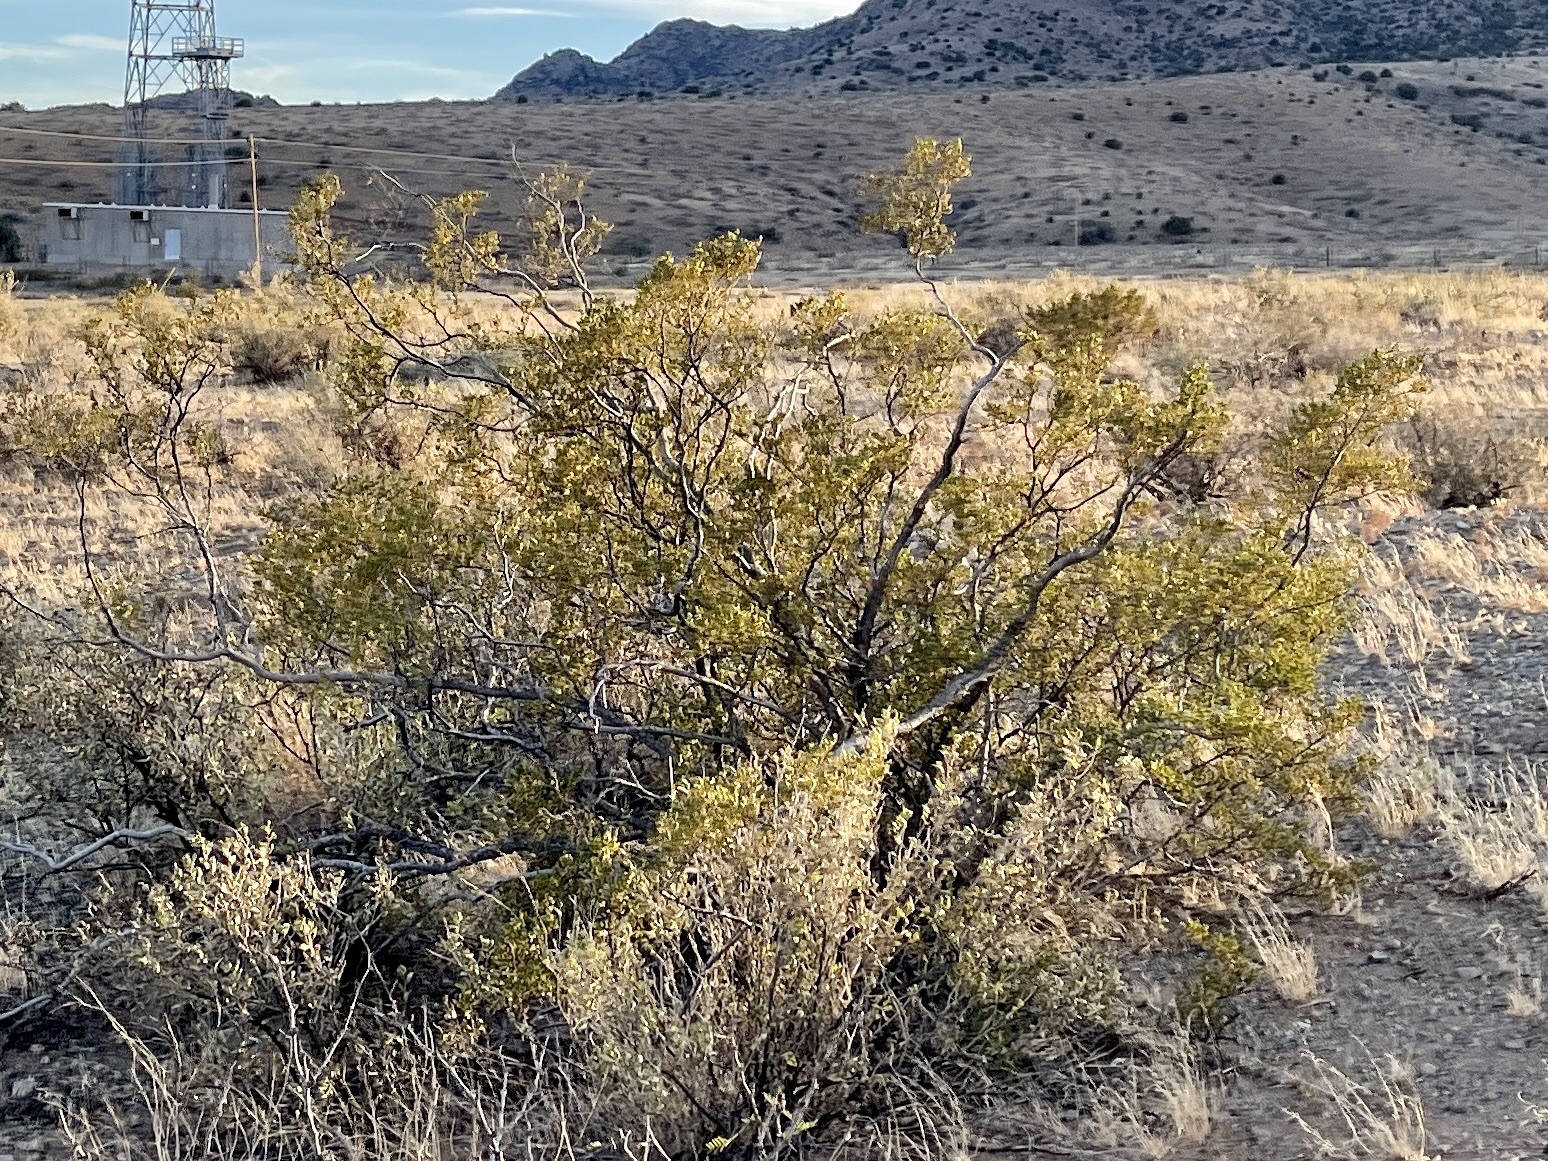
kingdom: Plantae
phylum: Tracheophyta
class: Magnoliopsida
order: Zygophyllales
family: Zygophyllaceae
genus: Larrea
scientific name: Larrea tridentata
